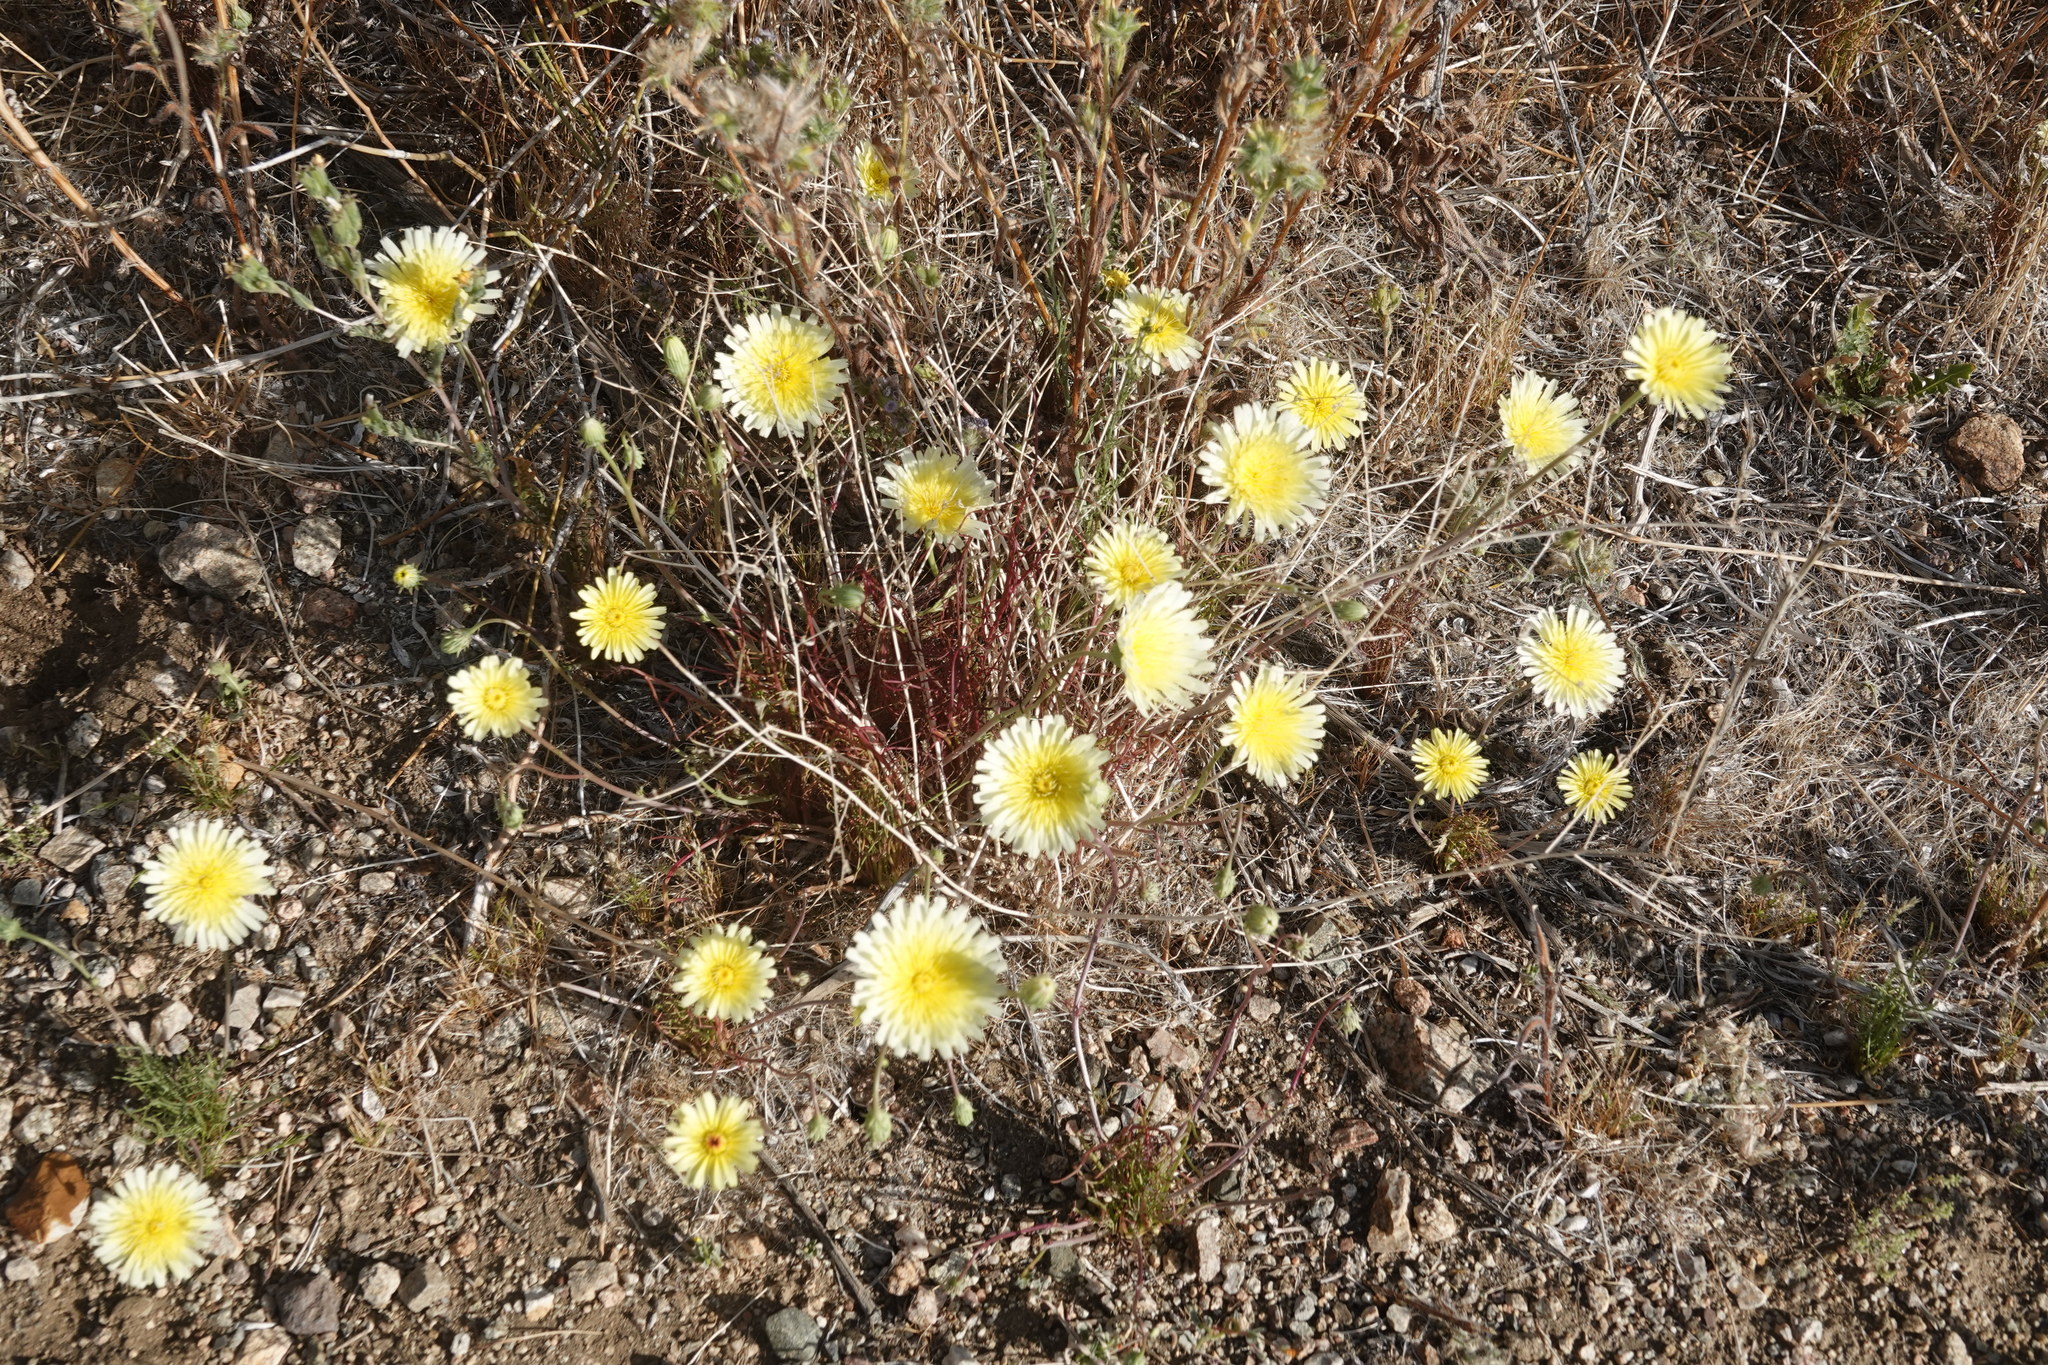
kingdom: Plantae
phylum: Tracheophyta
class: Magnoliopsida
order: Asterales
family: Asteraceae
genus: Malacothrix
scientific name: Malacothrix glabrata
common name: Smooth desert-dandelion
